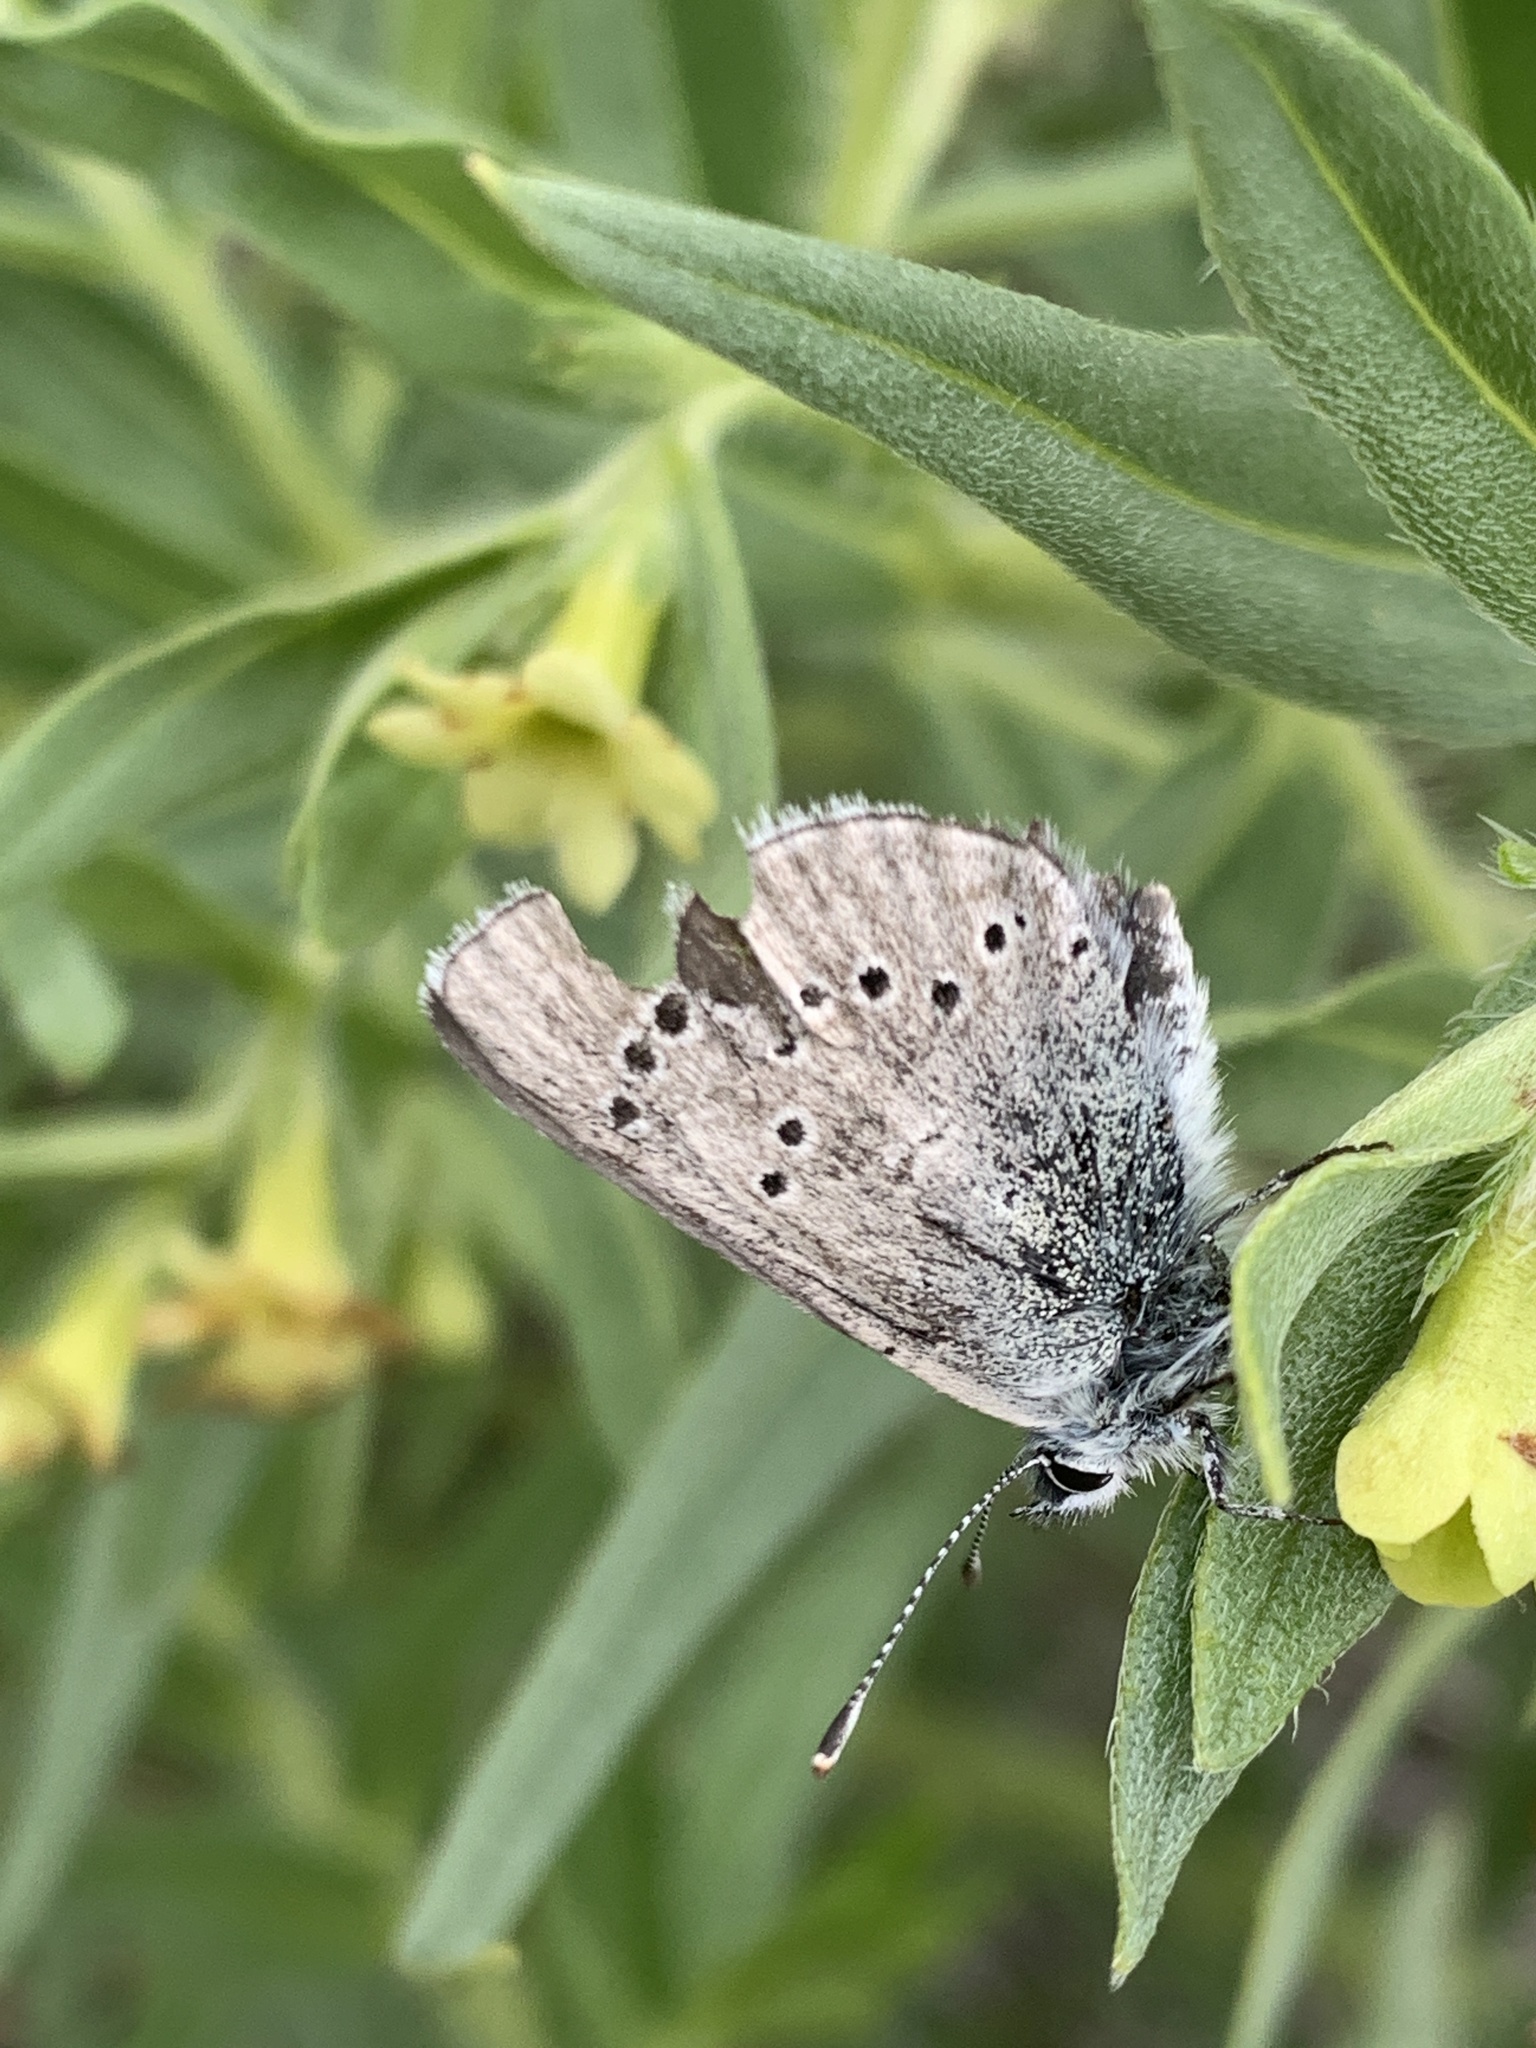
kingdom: Animalia
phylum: Arthropoda
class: Insecta
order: Lepidoptera
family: Lycaenidae
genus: Glaucopsyche
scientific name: Glaucopsyche lygdamus
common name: Silvery blue
